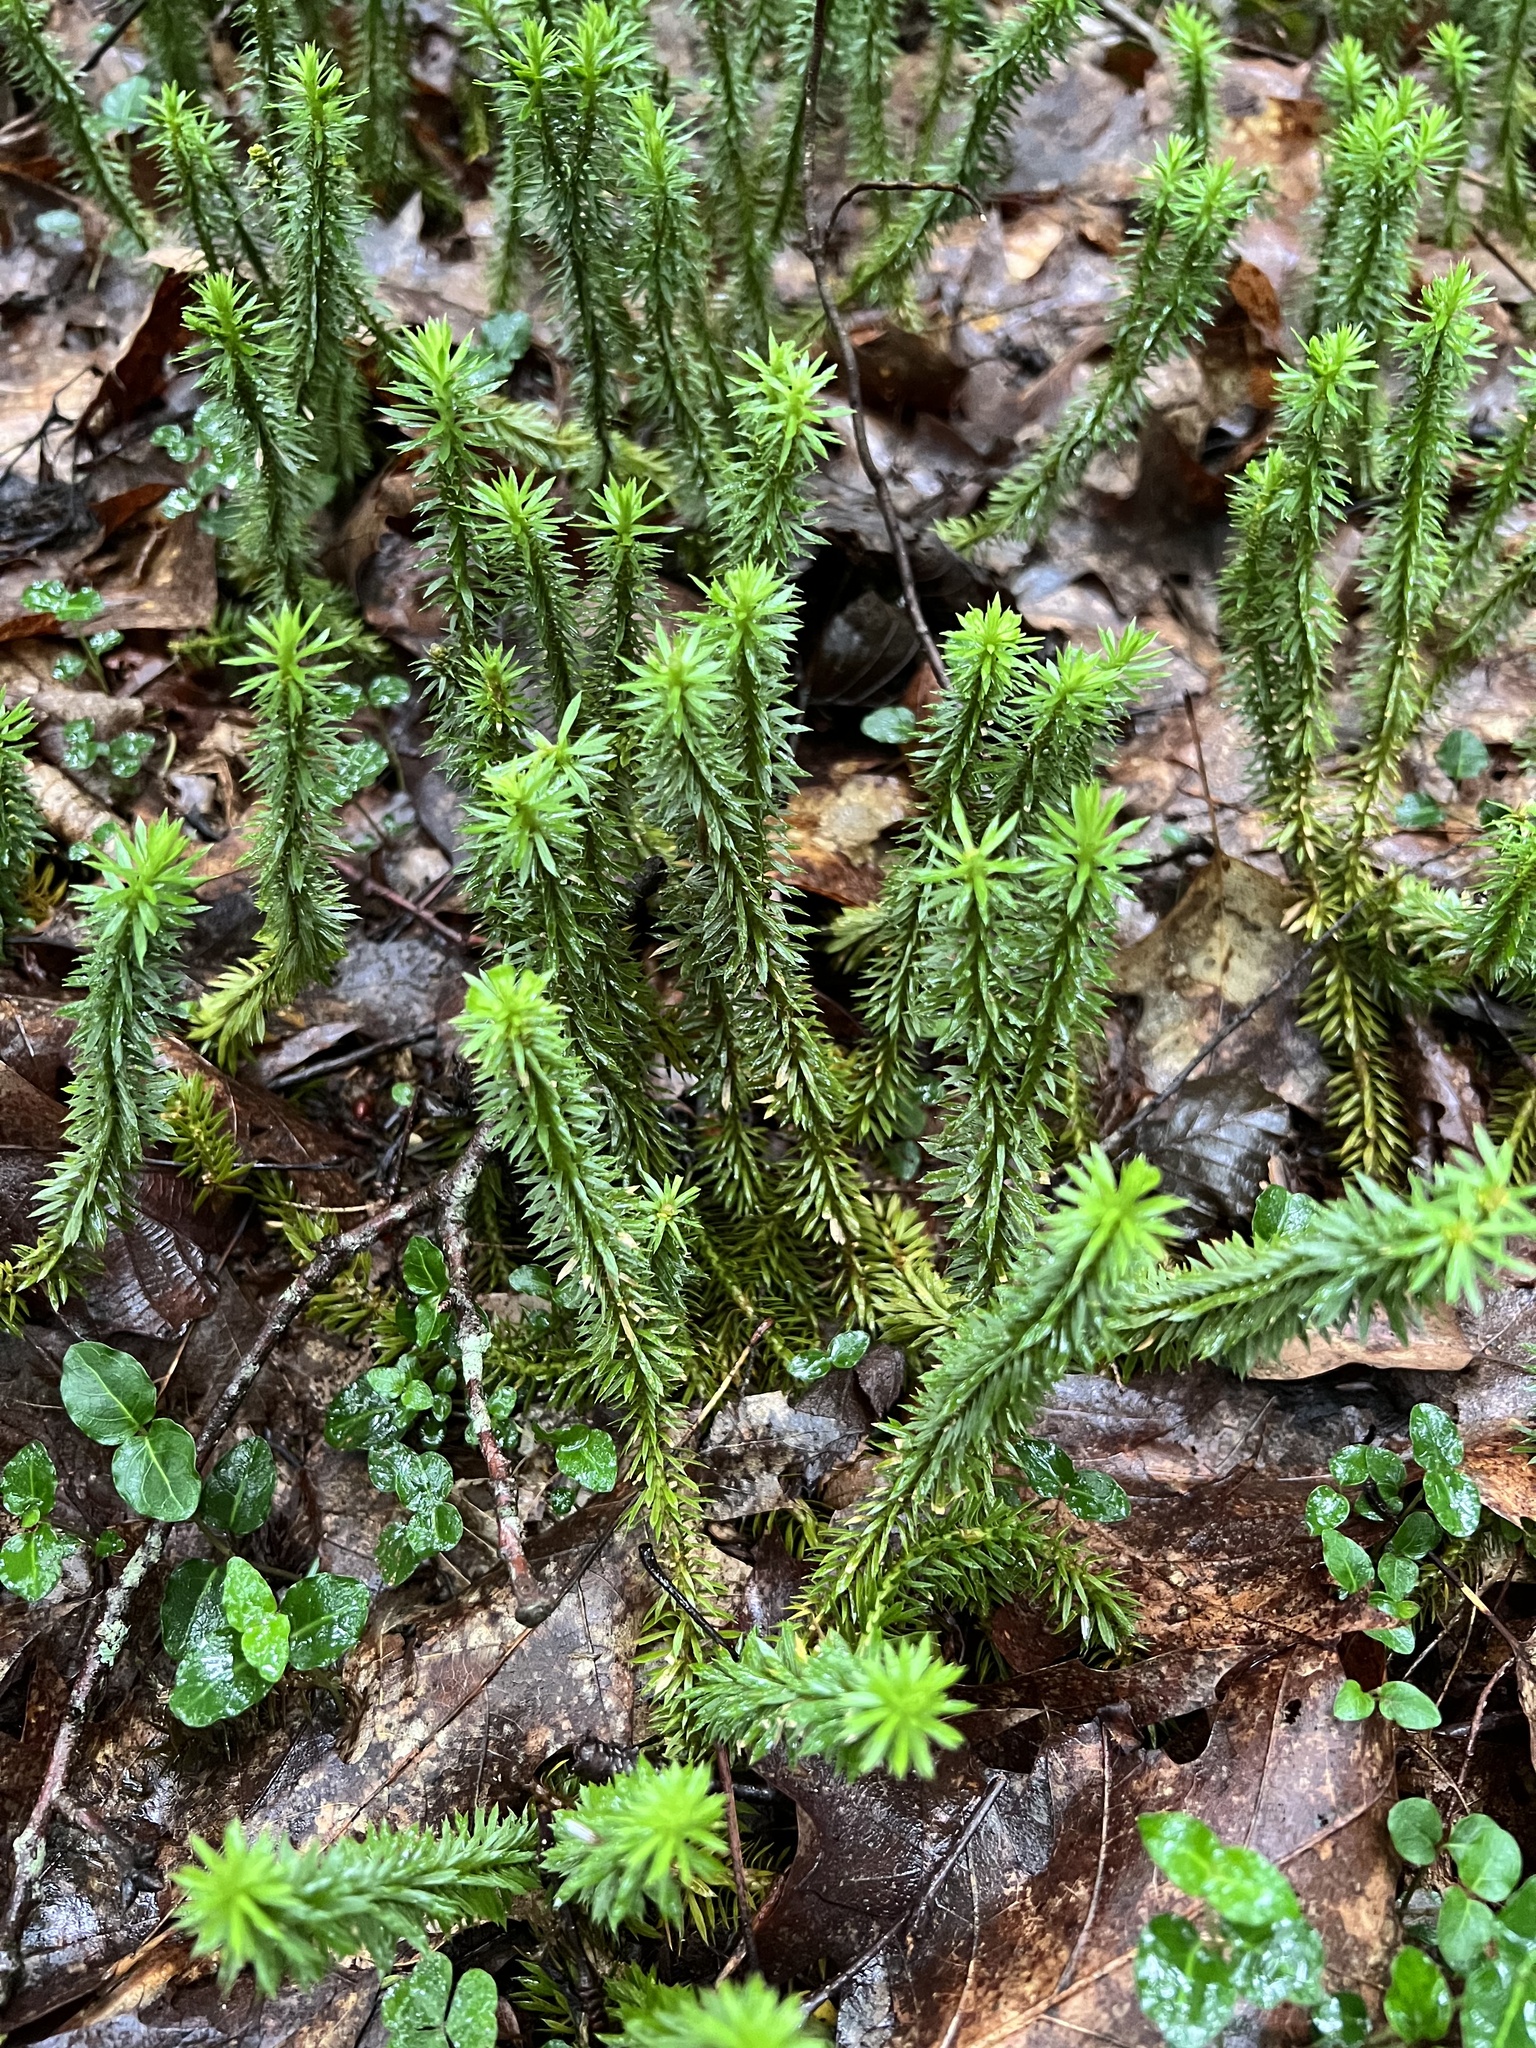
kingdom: Plantae
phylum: Tracheophyta
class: Lycopodiopsida
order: Lycopodiales
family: Lycopodiaceae
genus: Huperzia
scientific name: Huperzia lucidula
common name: Shining clubmoss
